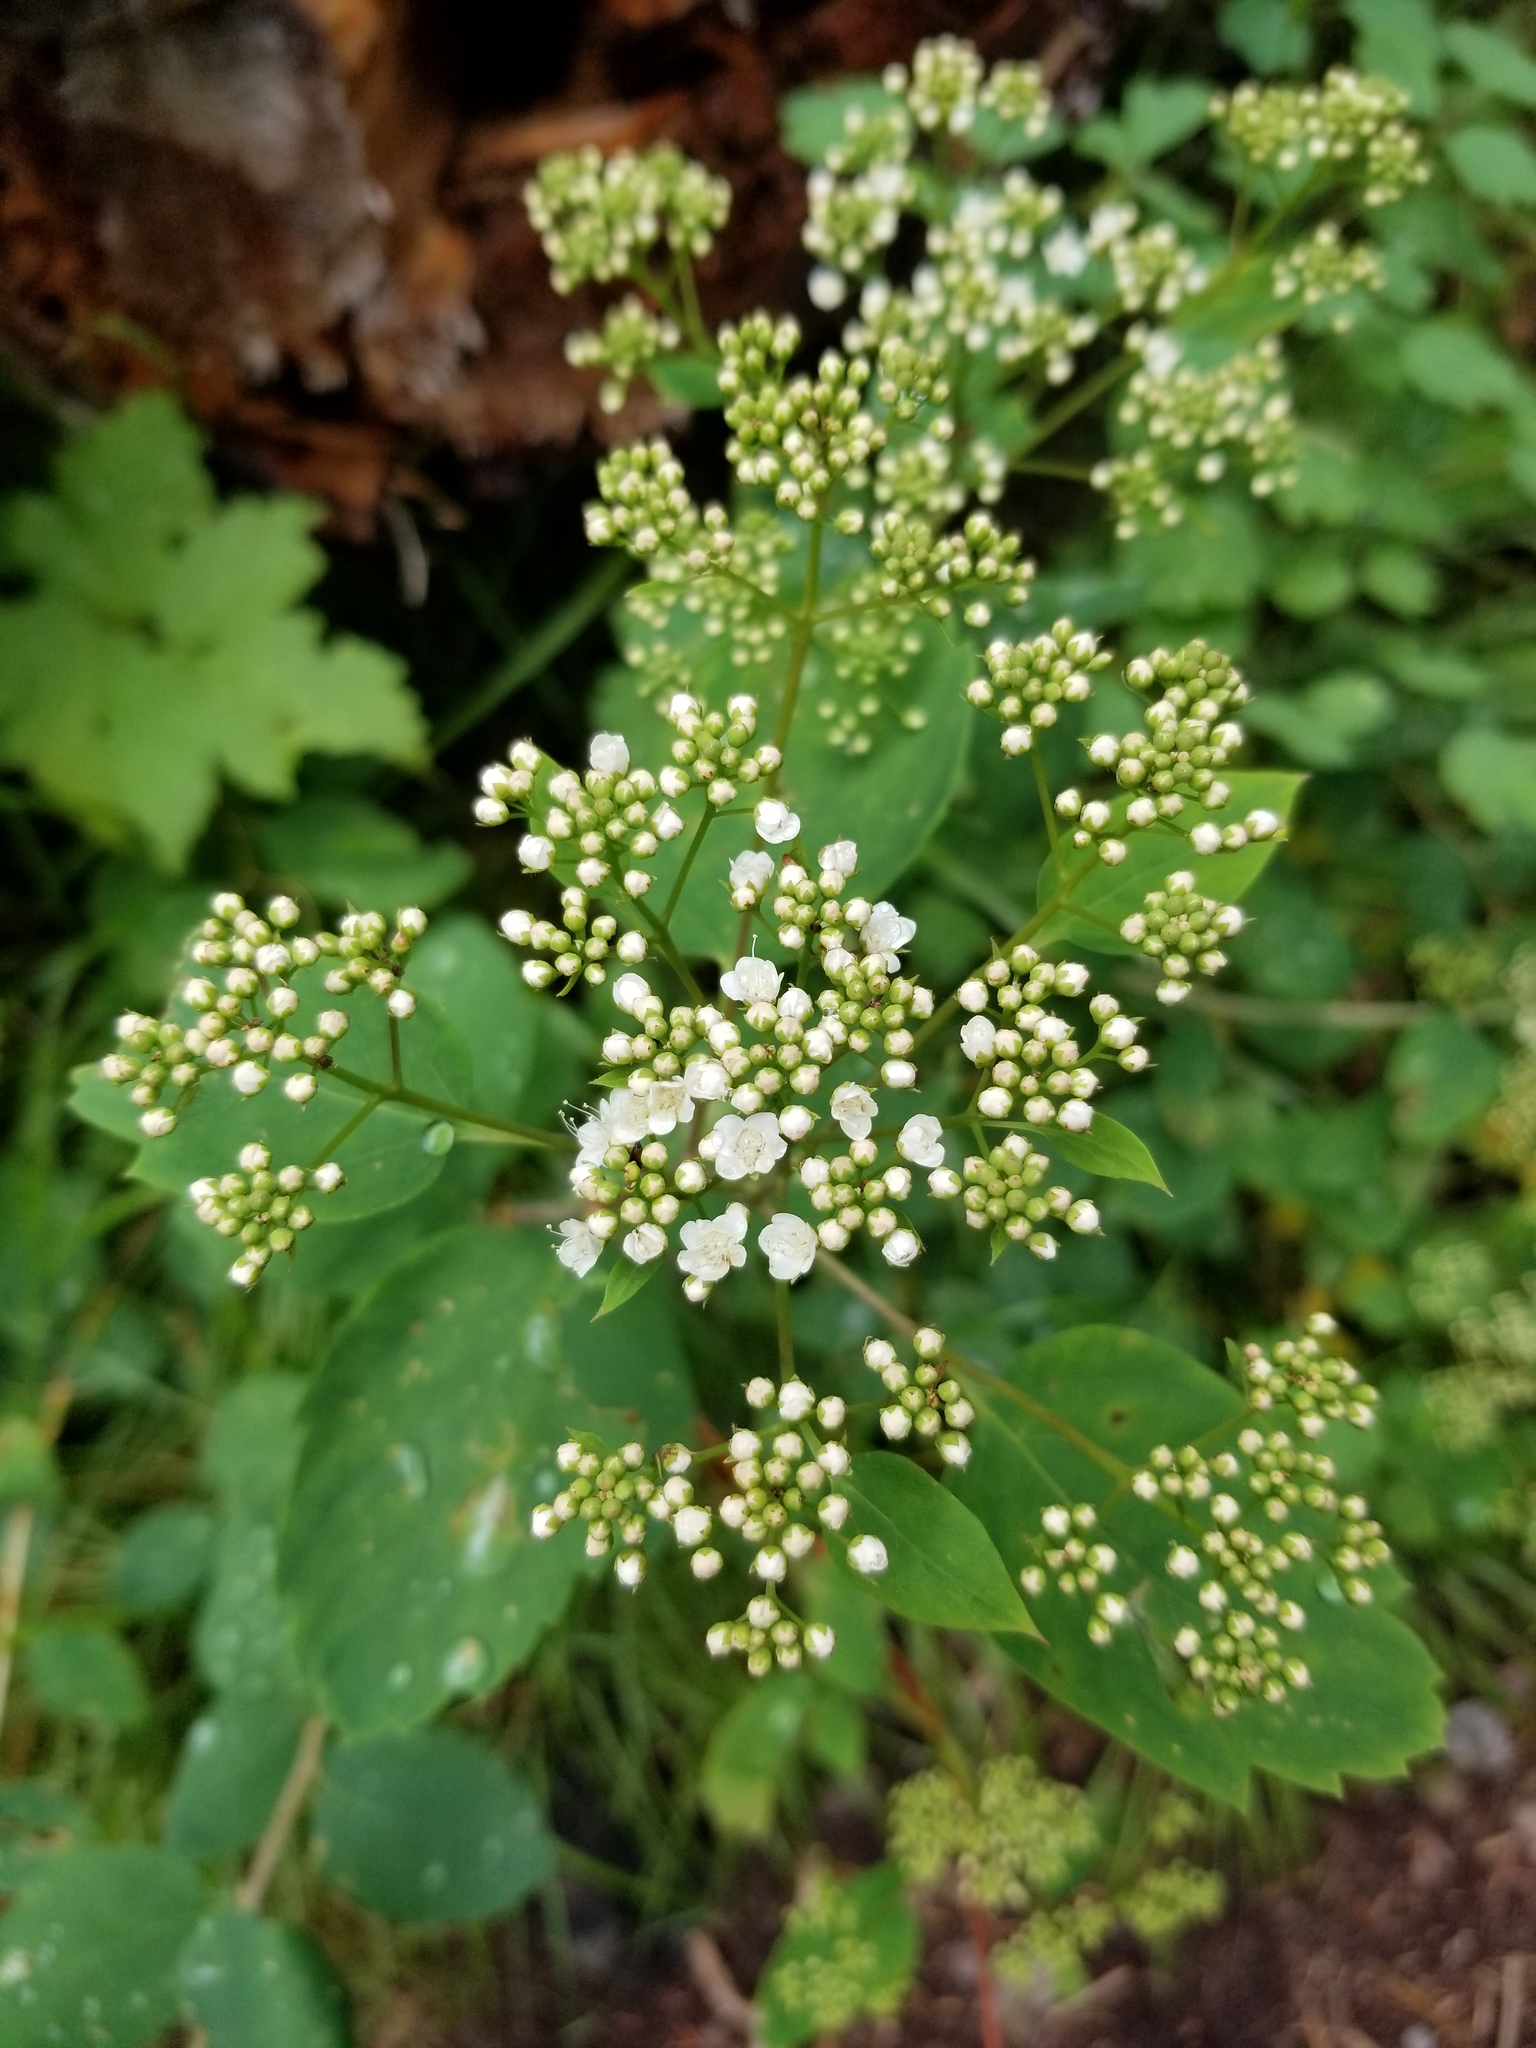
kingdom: Plantae
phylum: Tracheophyta
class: Magnoliopsida
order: Rosales
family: Rosaceae
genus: Spiraea
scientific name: Spiraea lucida
